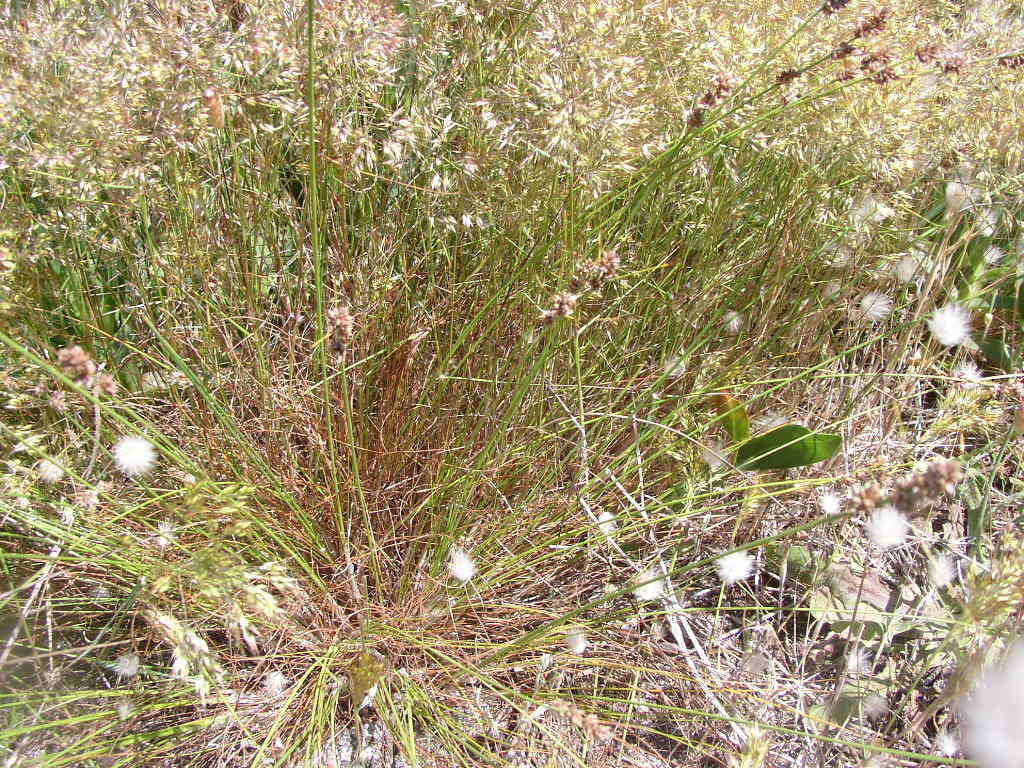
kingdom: Plantae
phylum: Tracheophyta
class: Liliopsida
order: Poales
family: Cyperaceae
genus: Ficinia
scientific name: Ficinia bulbosa
